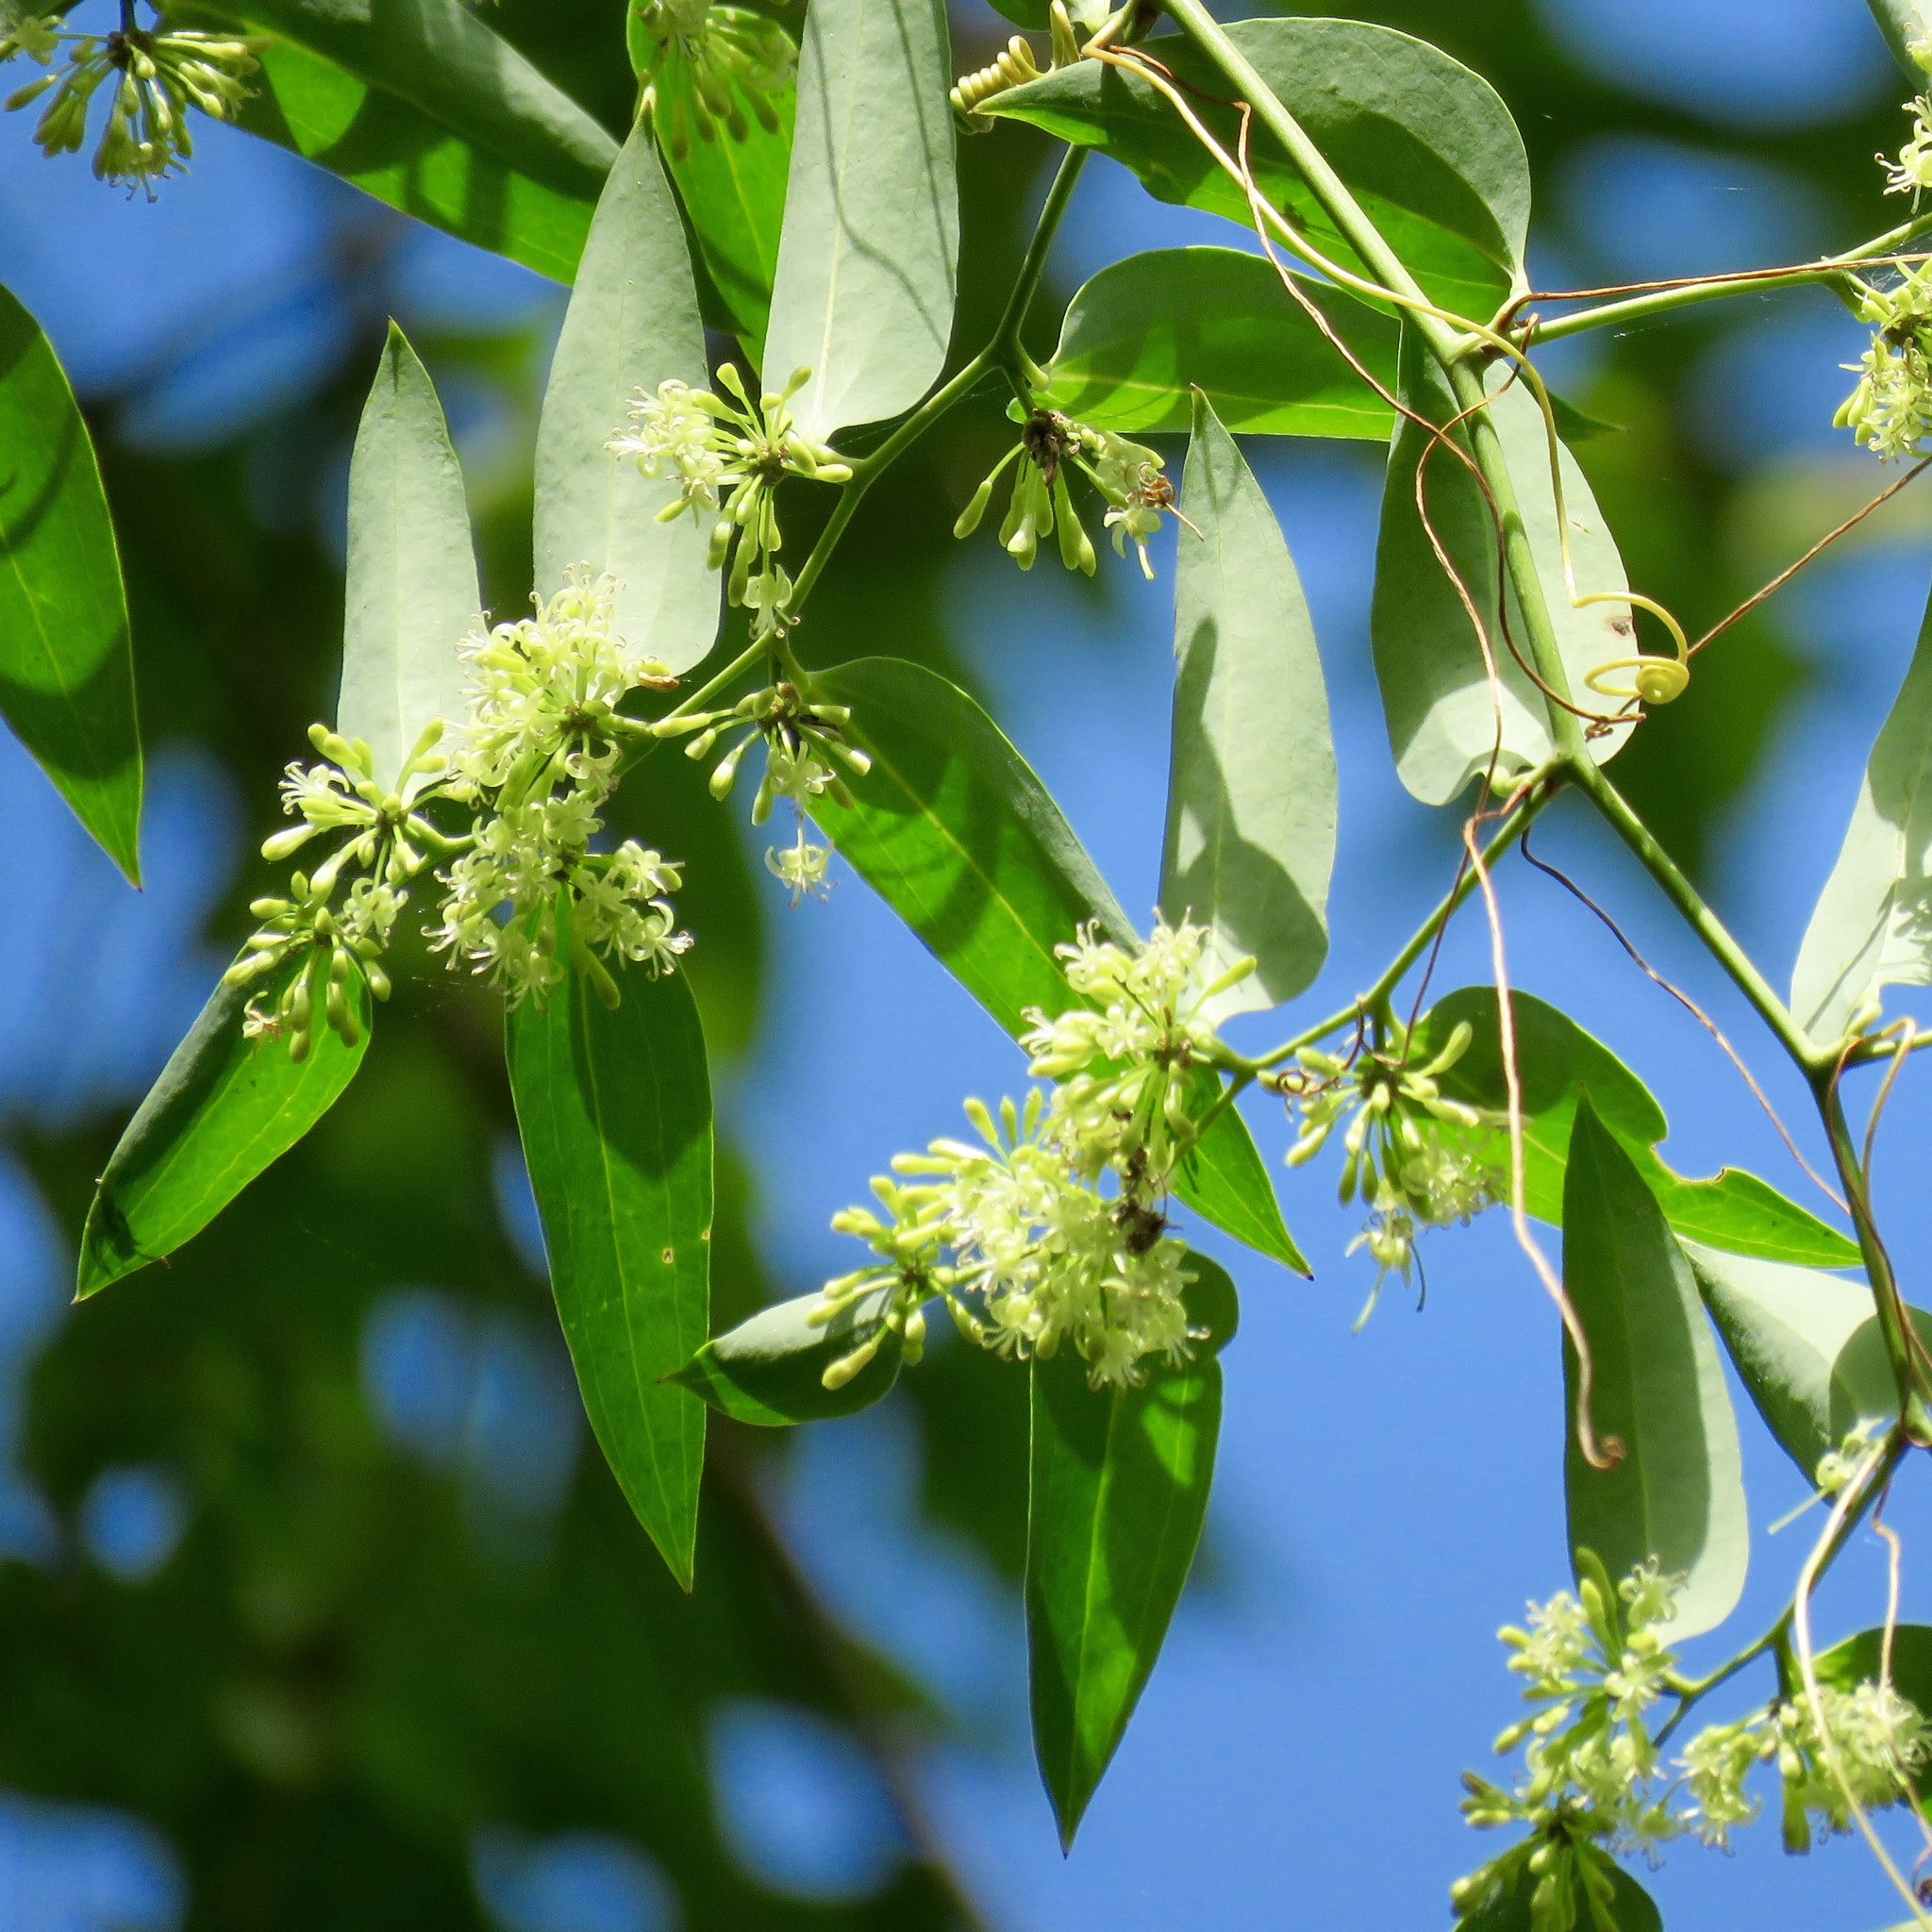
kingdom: Plantae
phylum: Tracheophyta
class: Liliopsida
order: Liliales
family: Smilacaceae
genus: Smilax
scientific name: Smilax laurifolia
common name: Bamboovine
